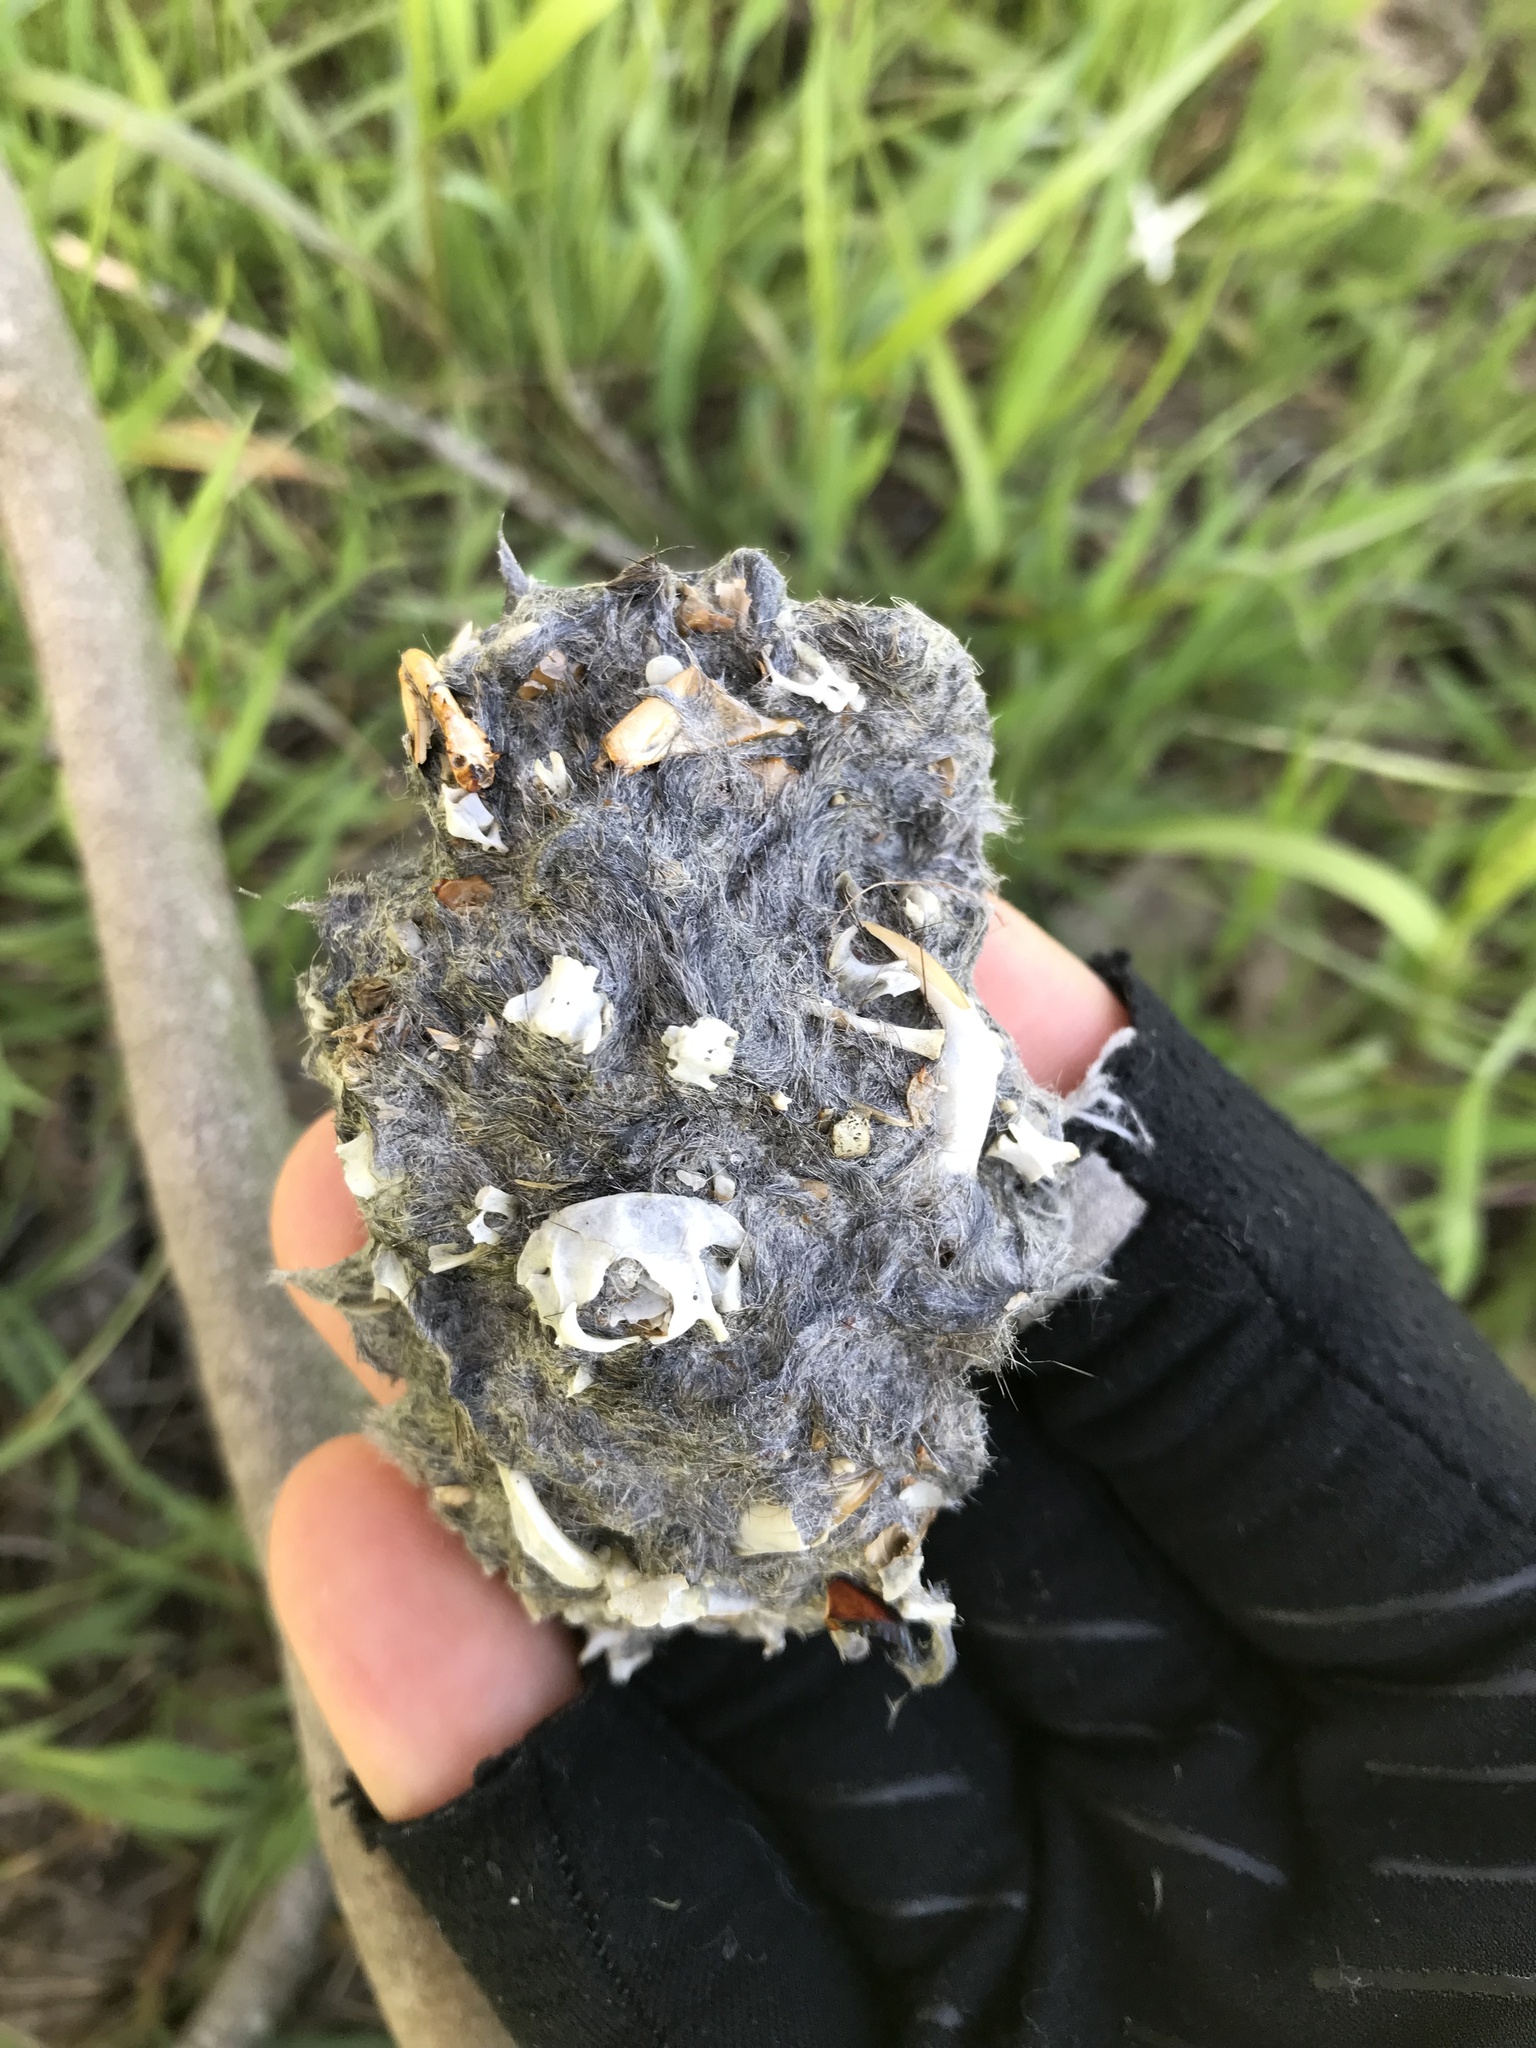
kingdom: Animalia
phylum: Chordata
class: Aves
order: Strigiformes
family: Strigidae
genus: Bubo
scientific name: Bubo virginianus
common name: Great horned owl
